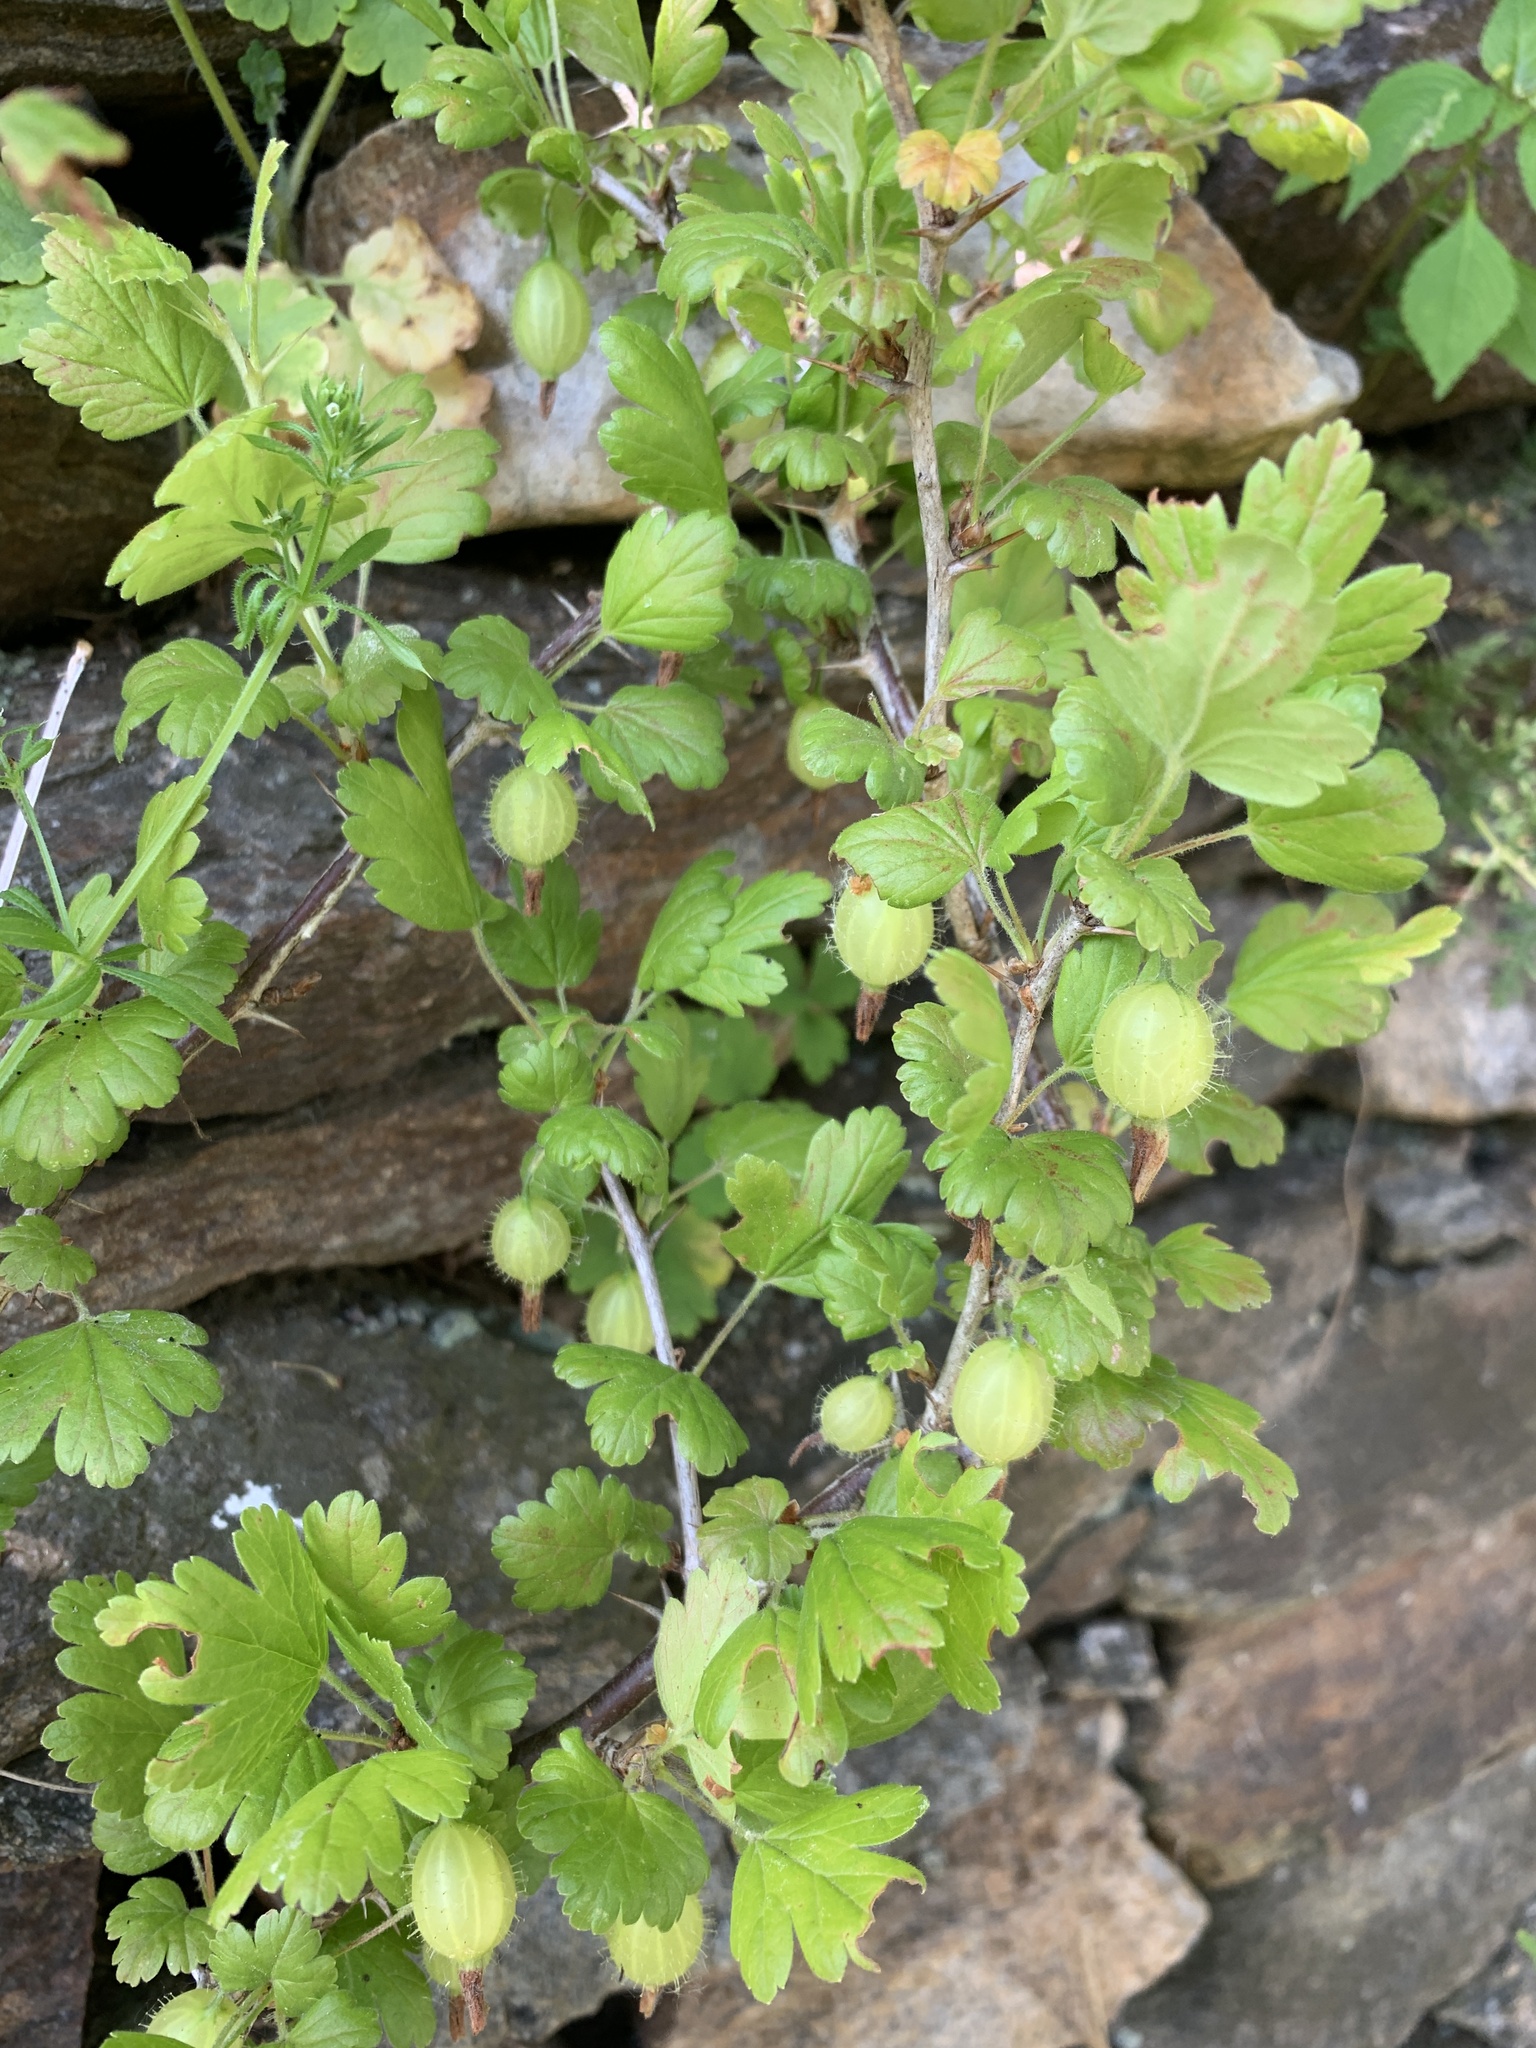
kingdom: Plantae
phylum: Tracheophyta
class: Magnoliopsida
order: Saxifragales
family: Grossulariaceae
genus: Ribes
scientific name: Ribes uva-crispa
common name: Gooseberry
